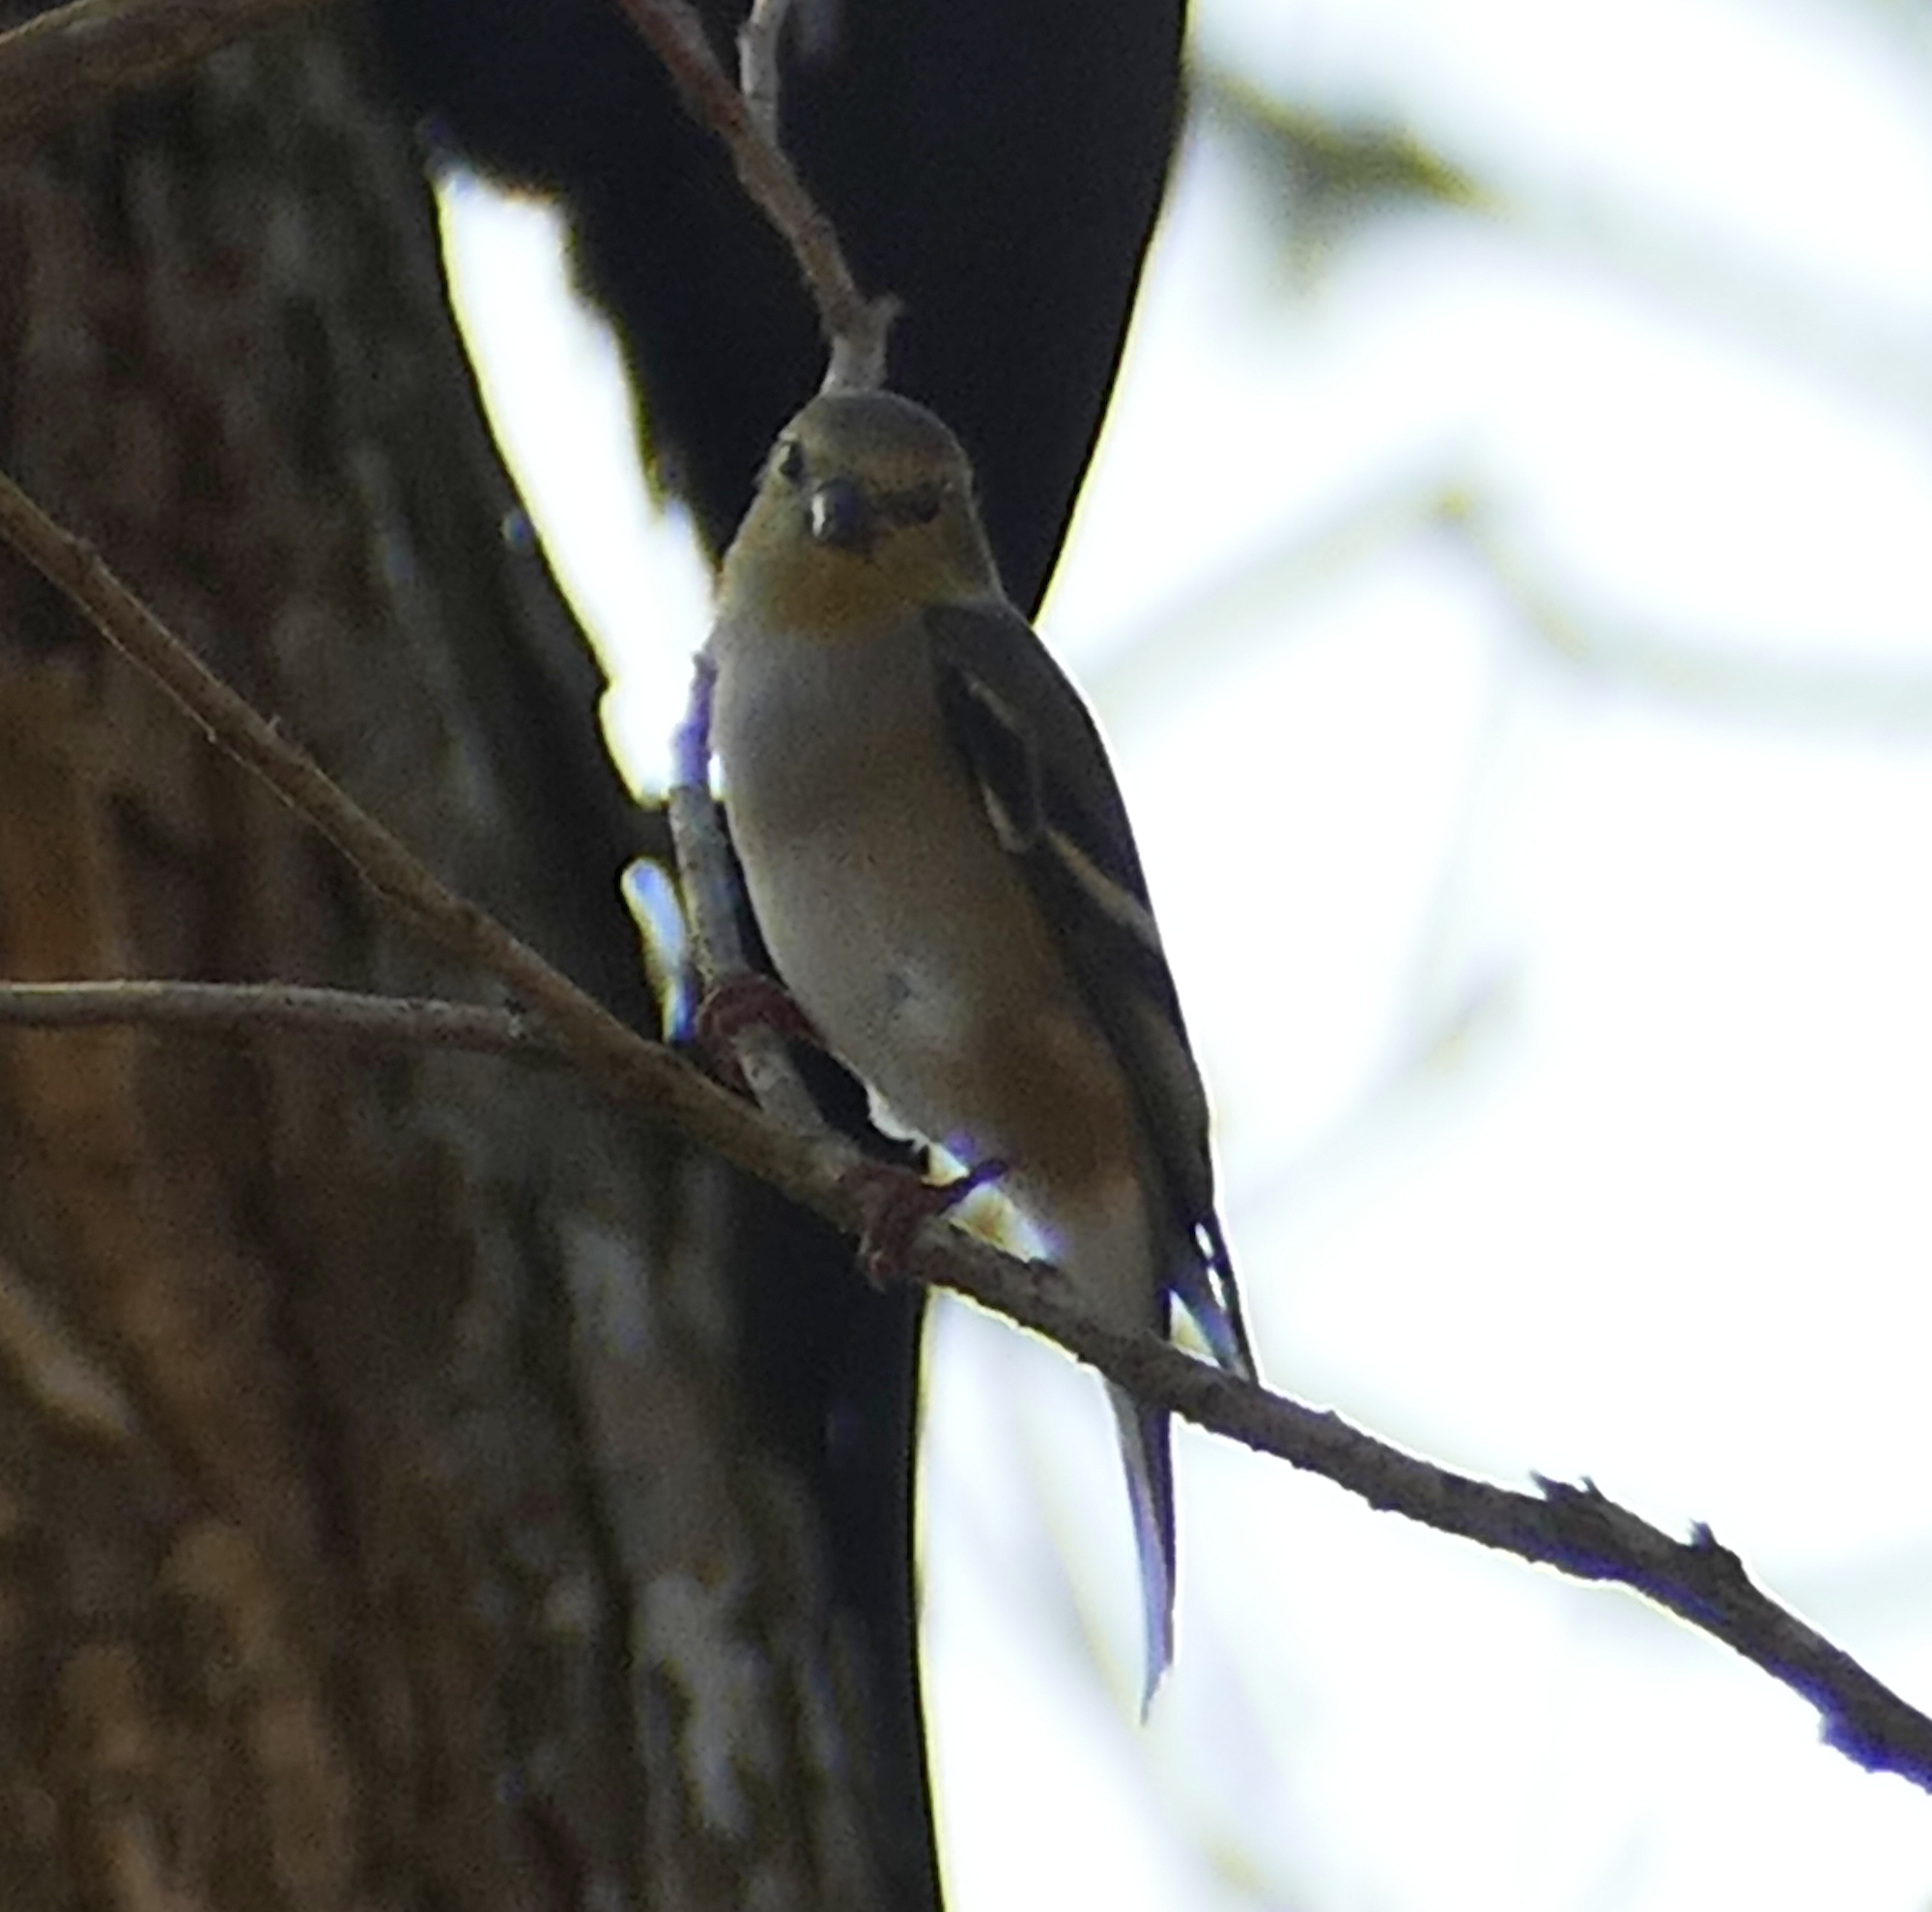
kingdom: Animalia
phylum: Chordata
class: Aves
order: Passeriformes
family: Fringillidae
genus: Spinus
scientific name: Spinus tristis
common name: American goldfinch
